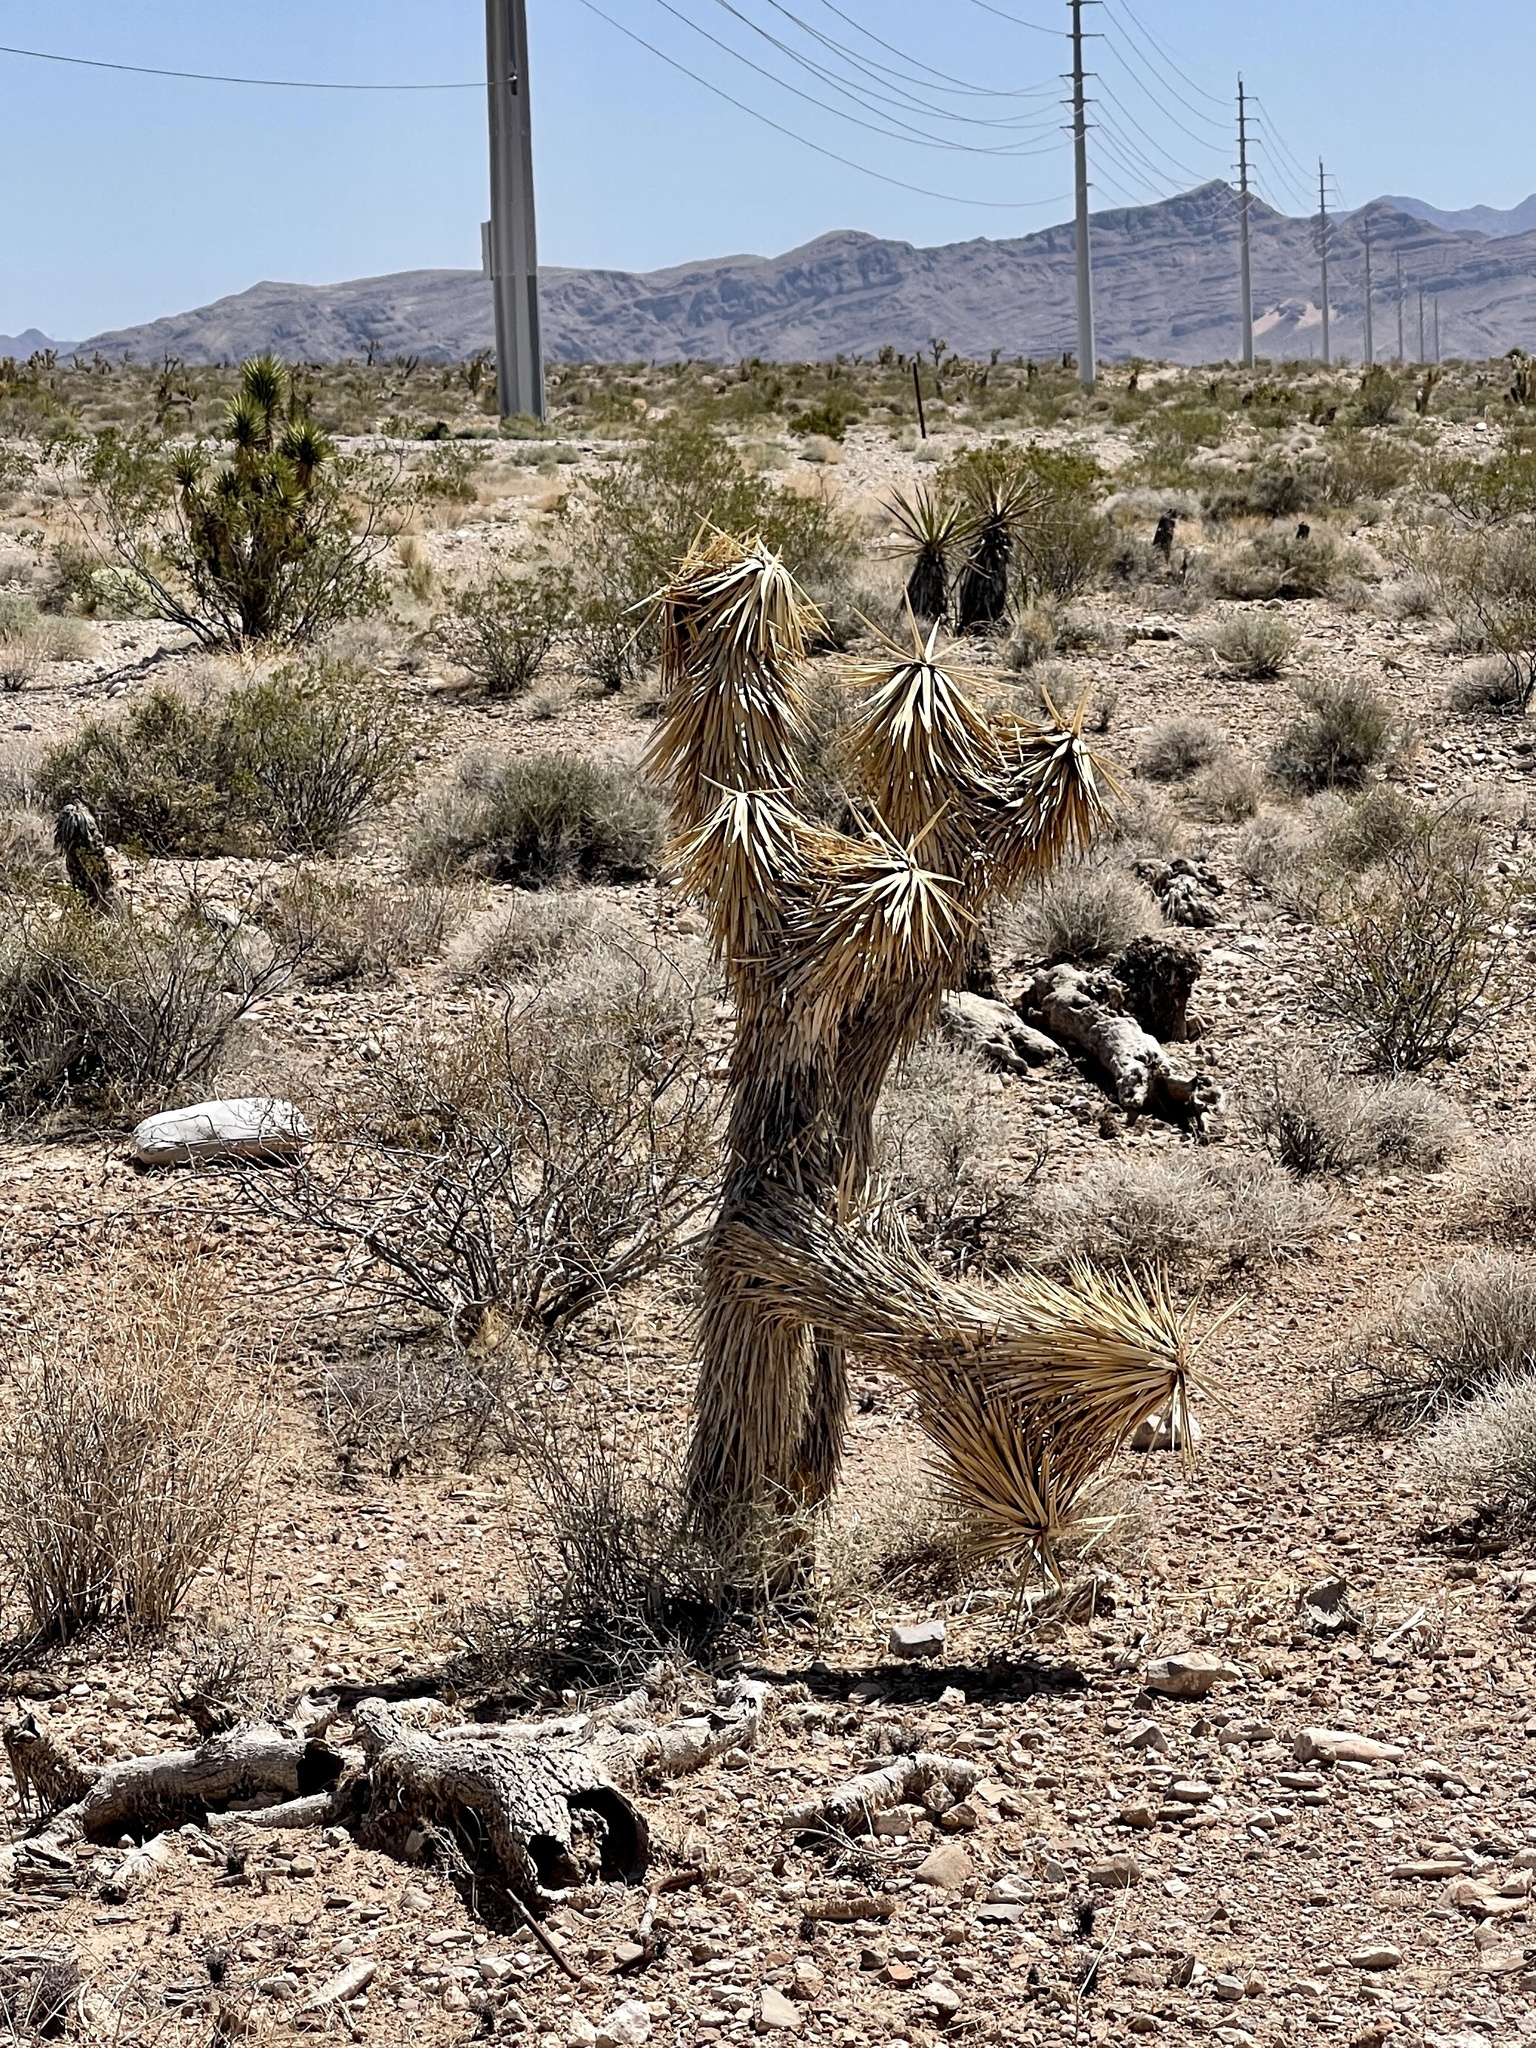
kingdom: Plantae
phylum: Tracheophyta
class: Liliopsida
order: Asparagales
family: Asparagaceae
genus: Yucca
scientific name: Yucca brevifolia
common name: Joshua tree
